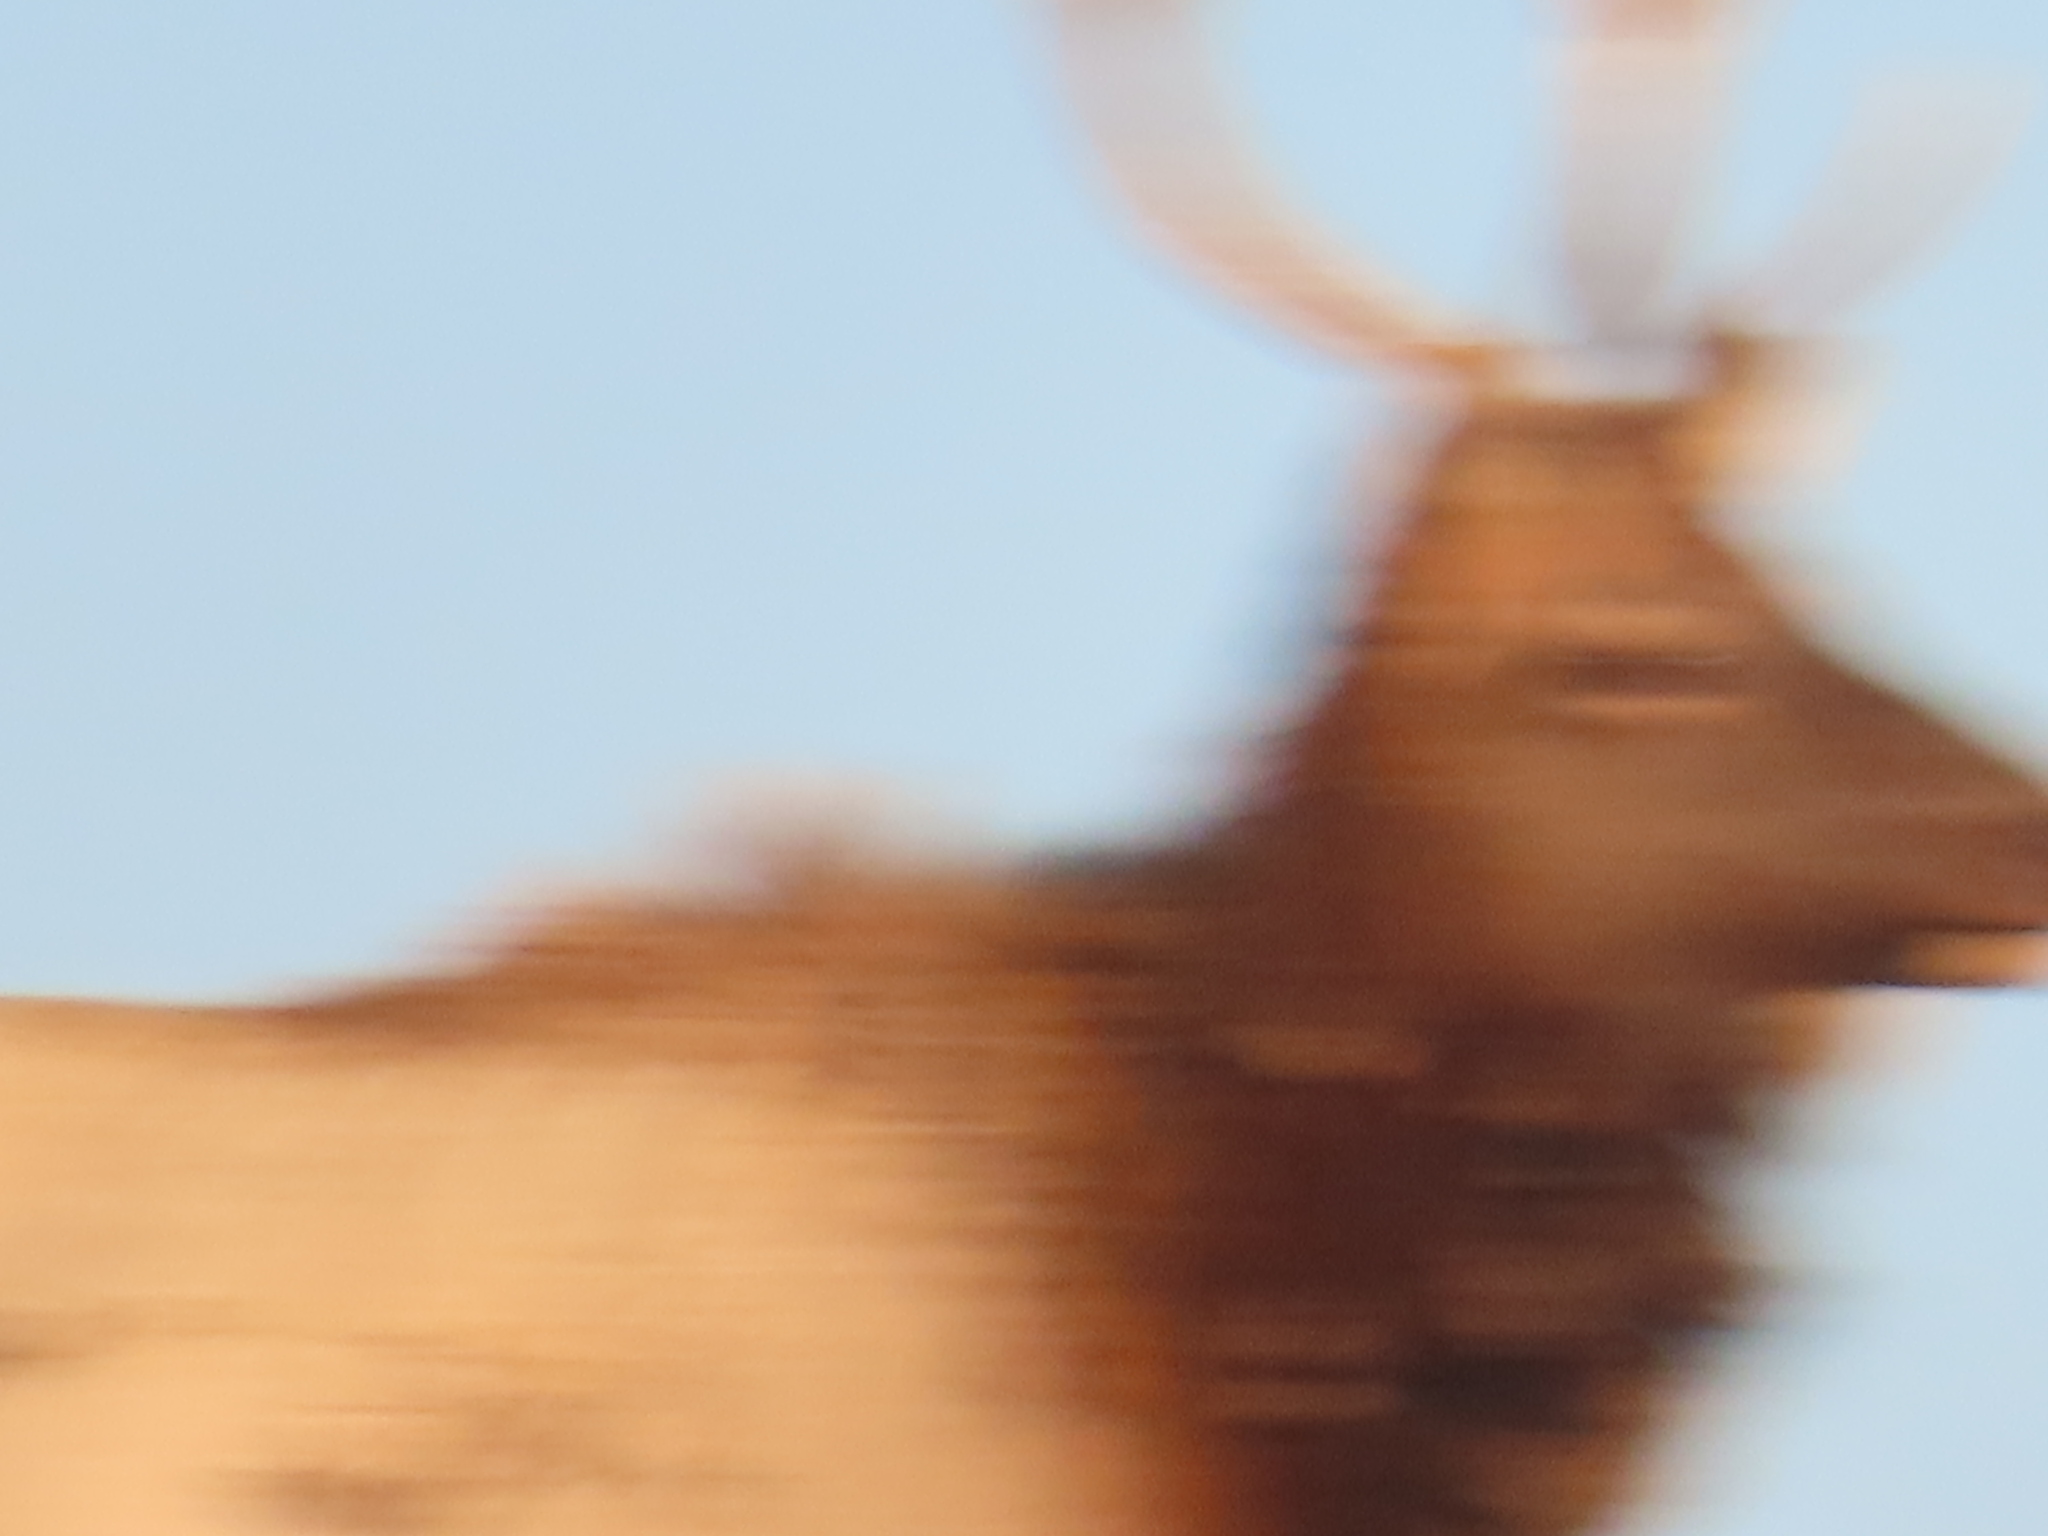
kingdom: Animalia
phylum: Chordata
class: Mammalia
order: Artiodactyla
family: Cervidae
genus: Cervus
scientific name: Cervus elaphus
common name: Red deer
